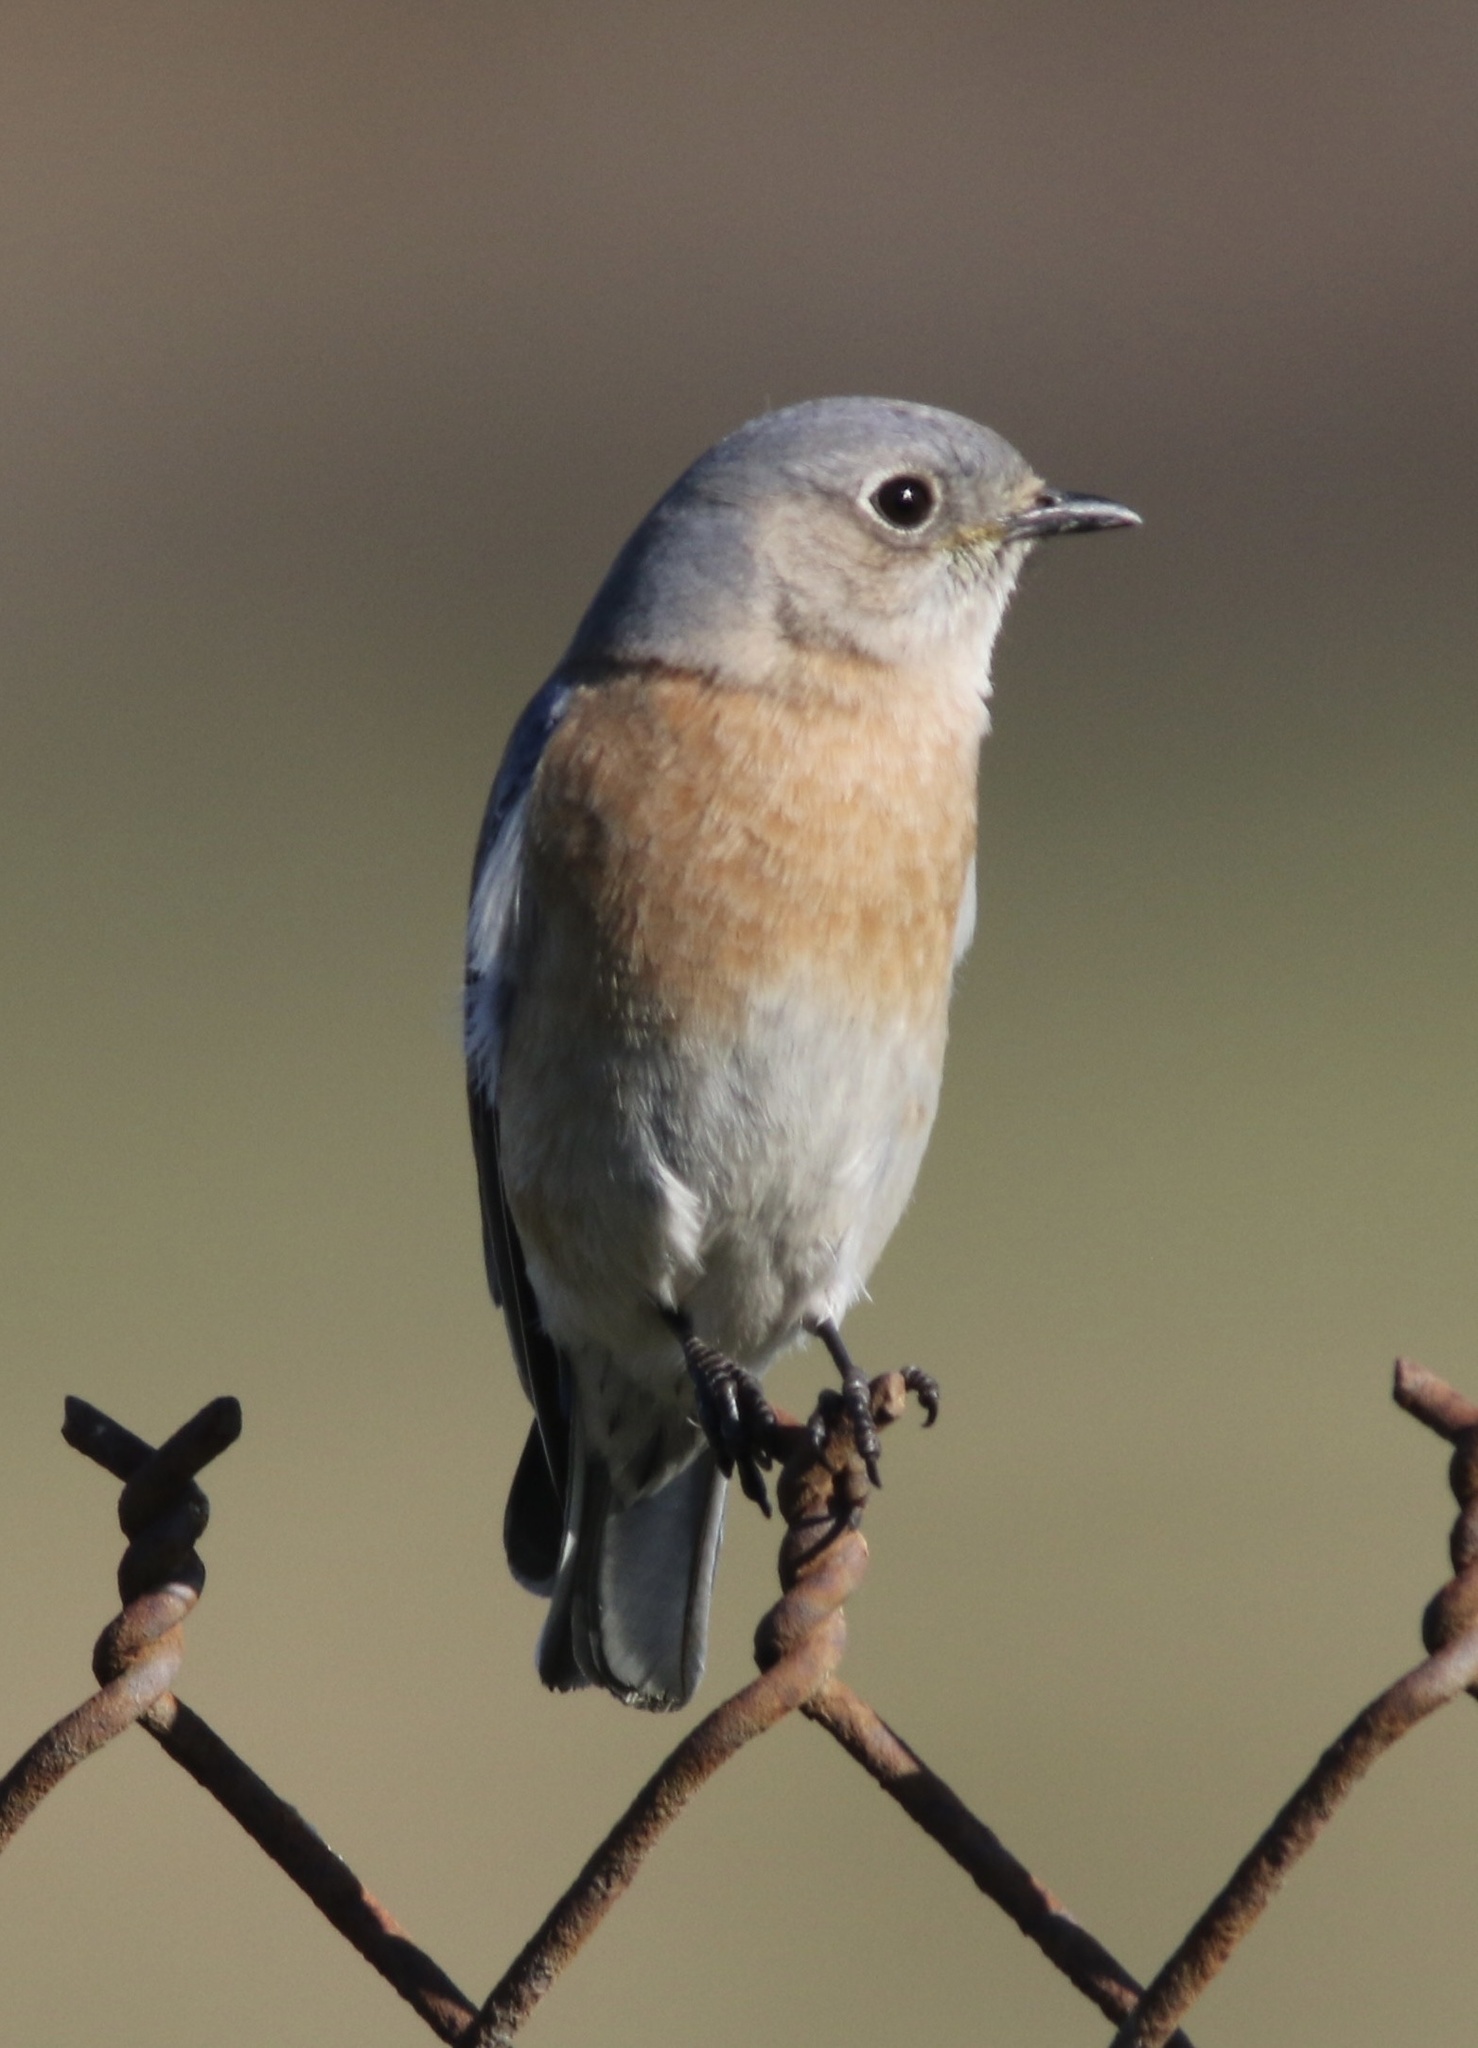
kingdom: Animalia
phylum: Chordata
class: Aves
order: Passeriformes
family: Turdidae
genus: Sialia
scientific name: Sialia mexicana
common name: Western bluebird
